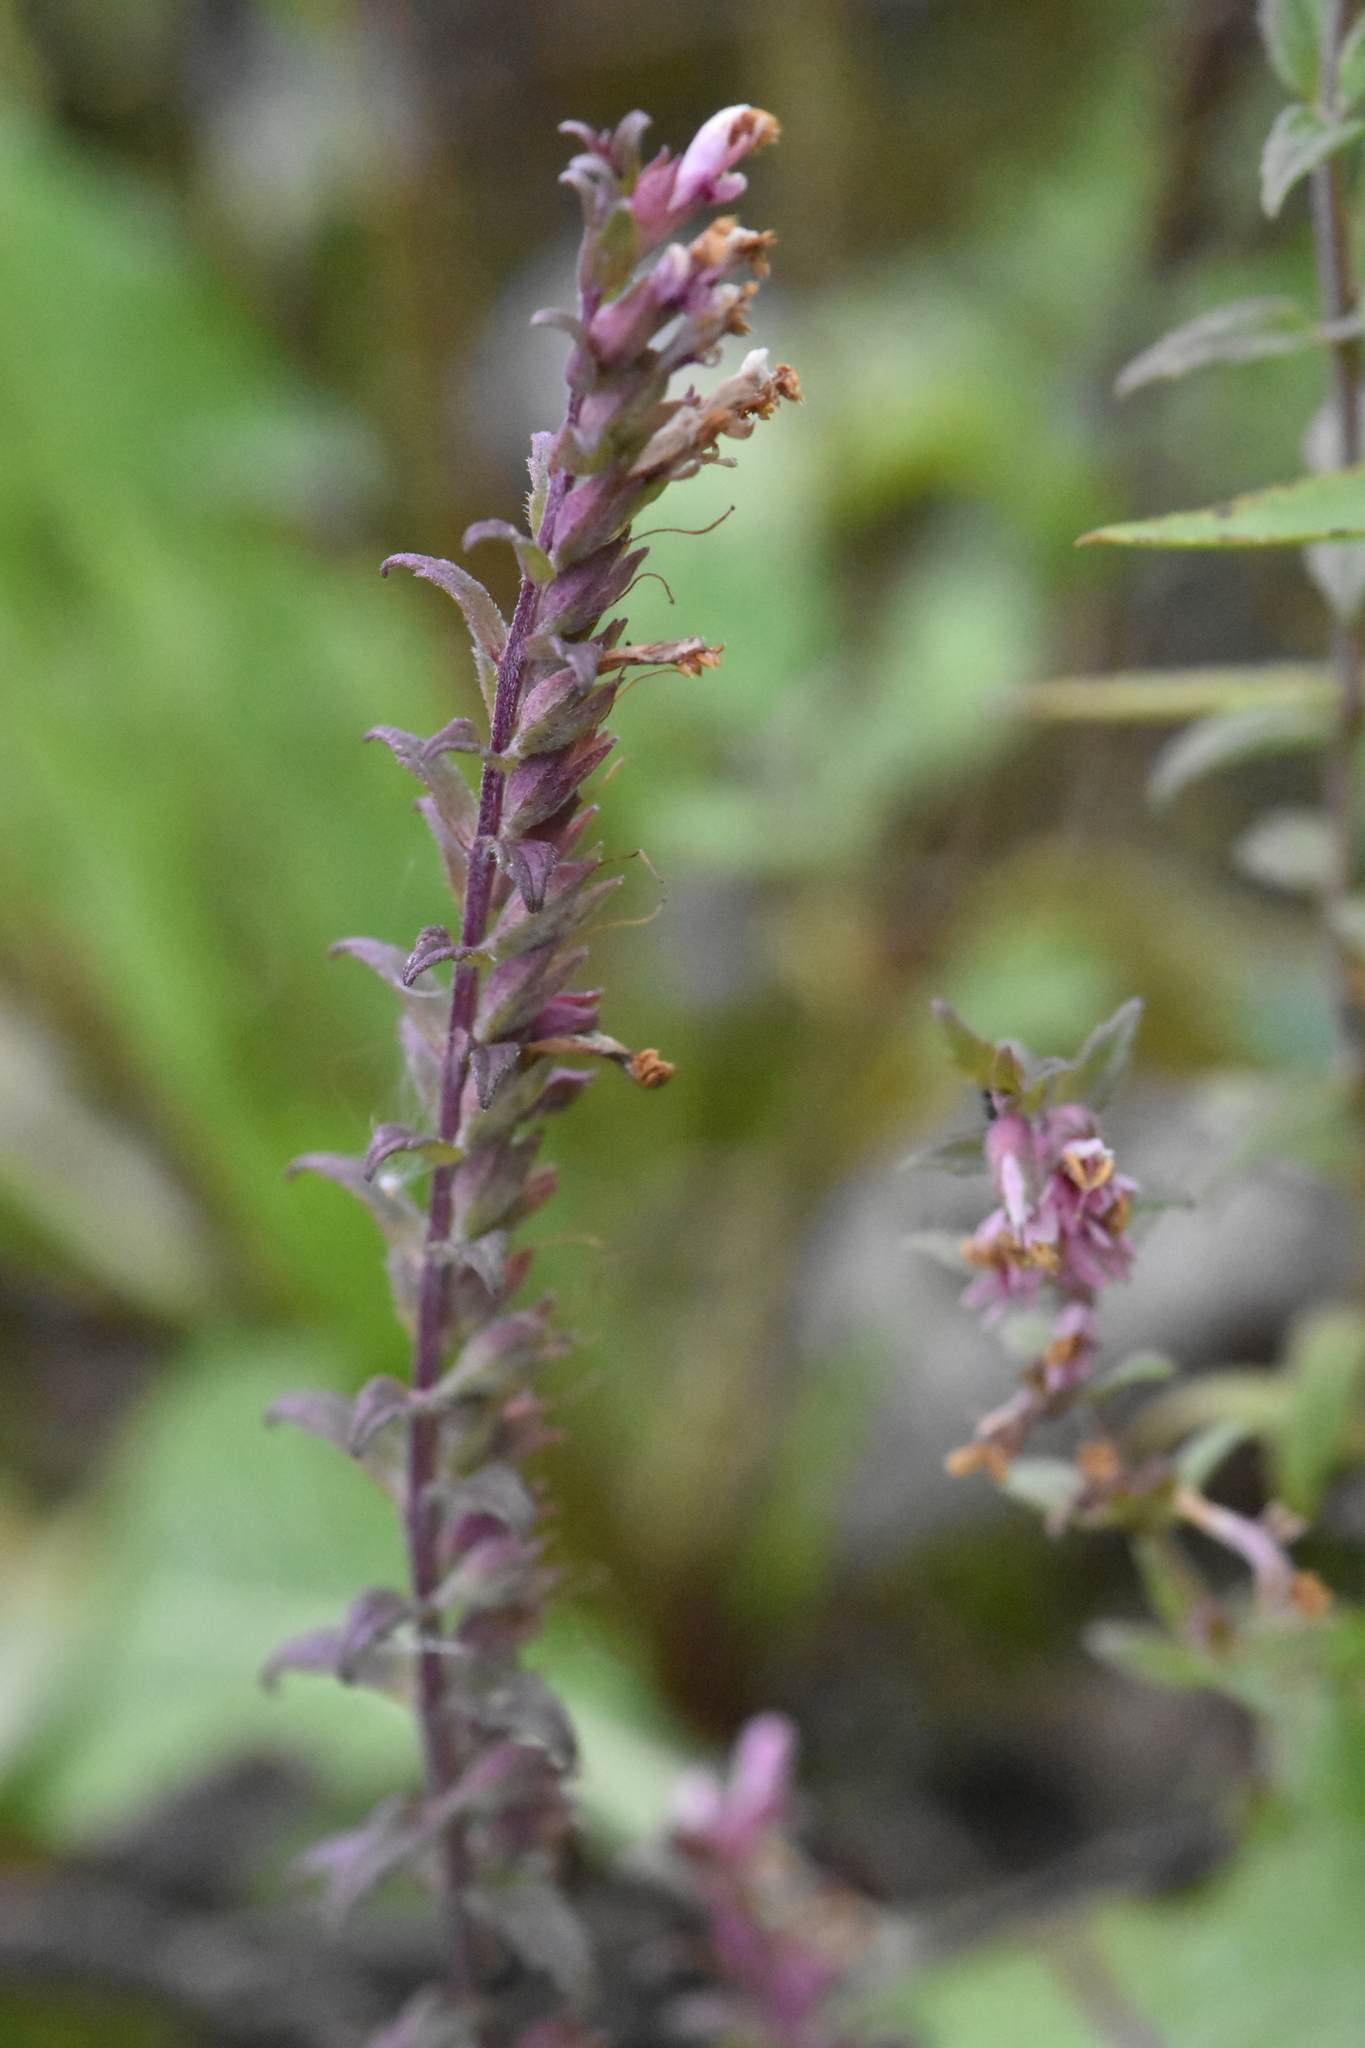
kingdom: Plantae
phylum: Tracheophyta
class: Magnoliopsida
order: Lamiales
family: Orobanchaceae
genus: Odontites
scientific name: Odontites vulgaris
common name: Broomrape
